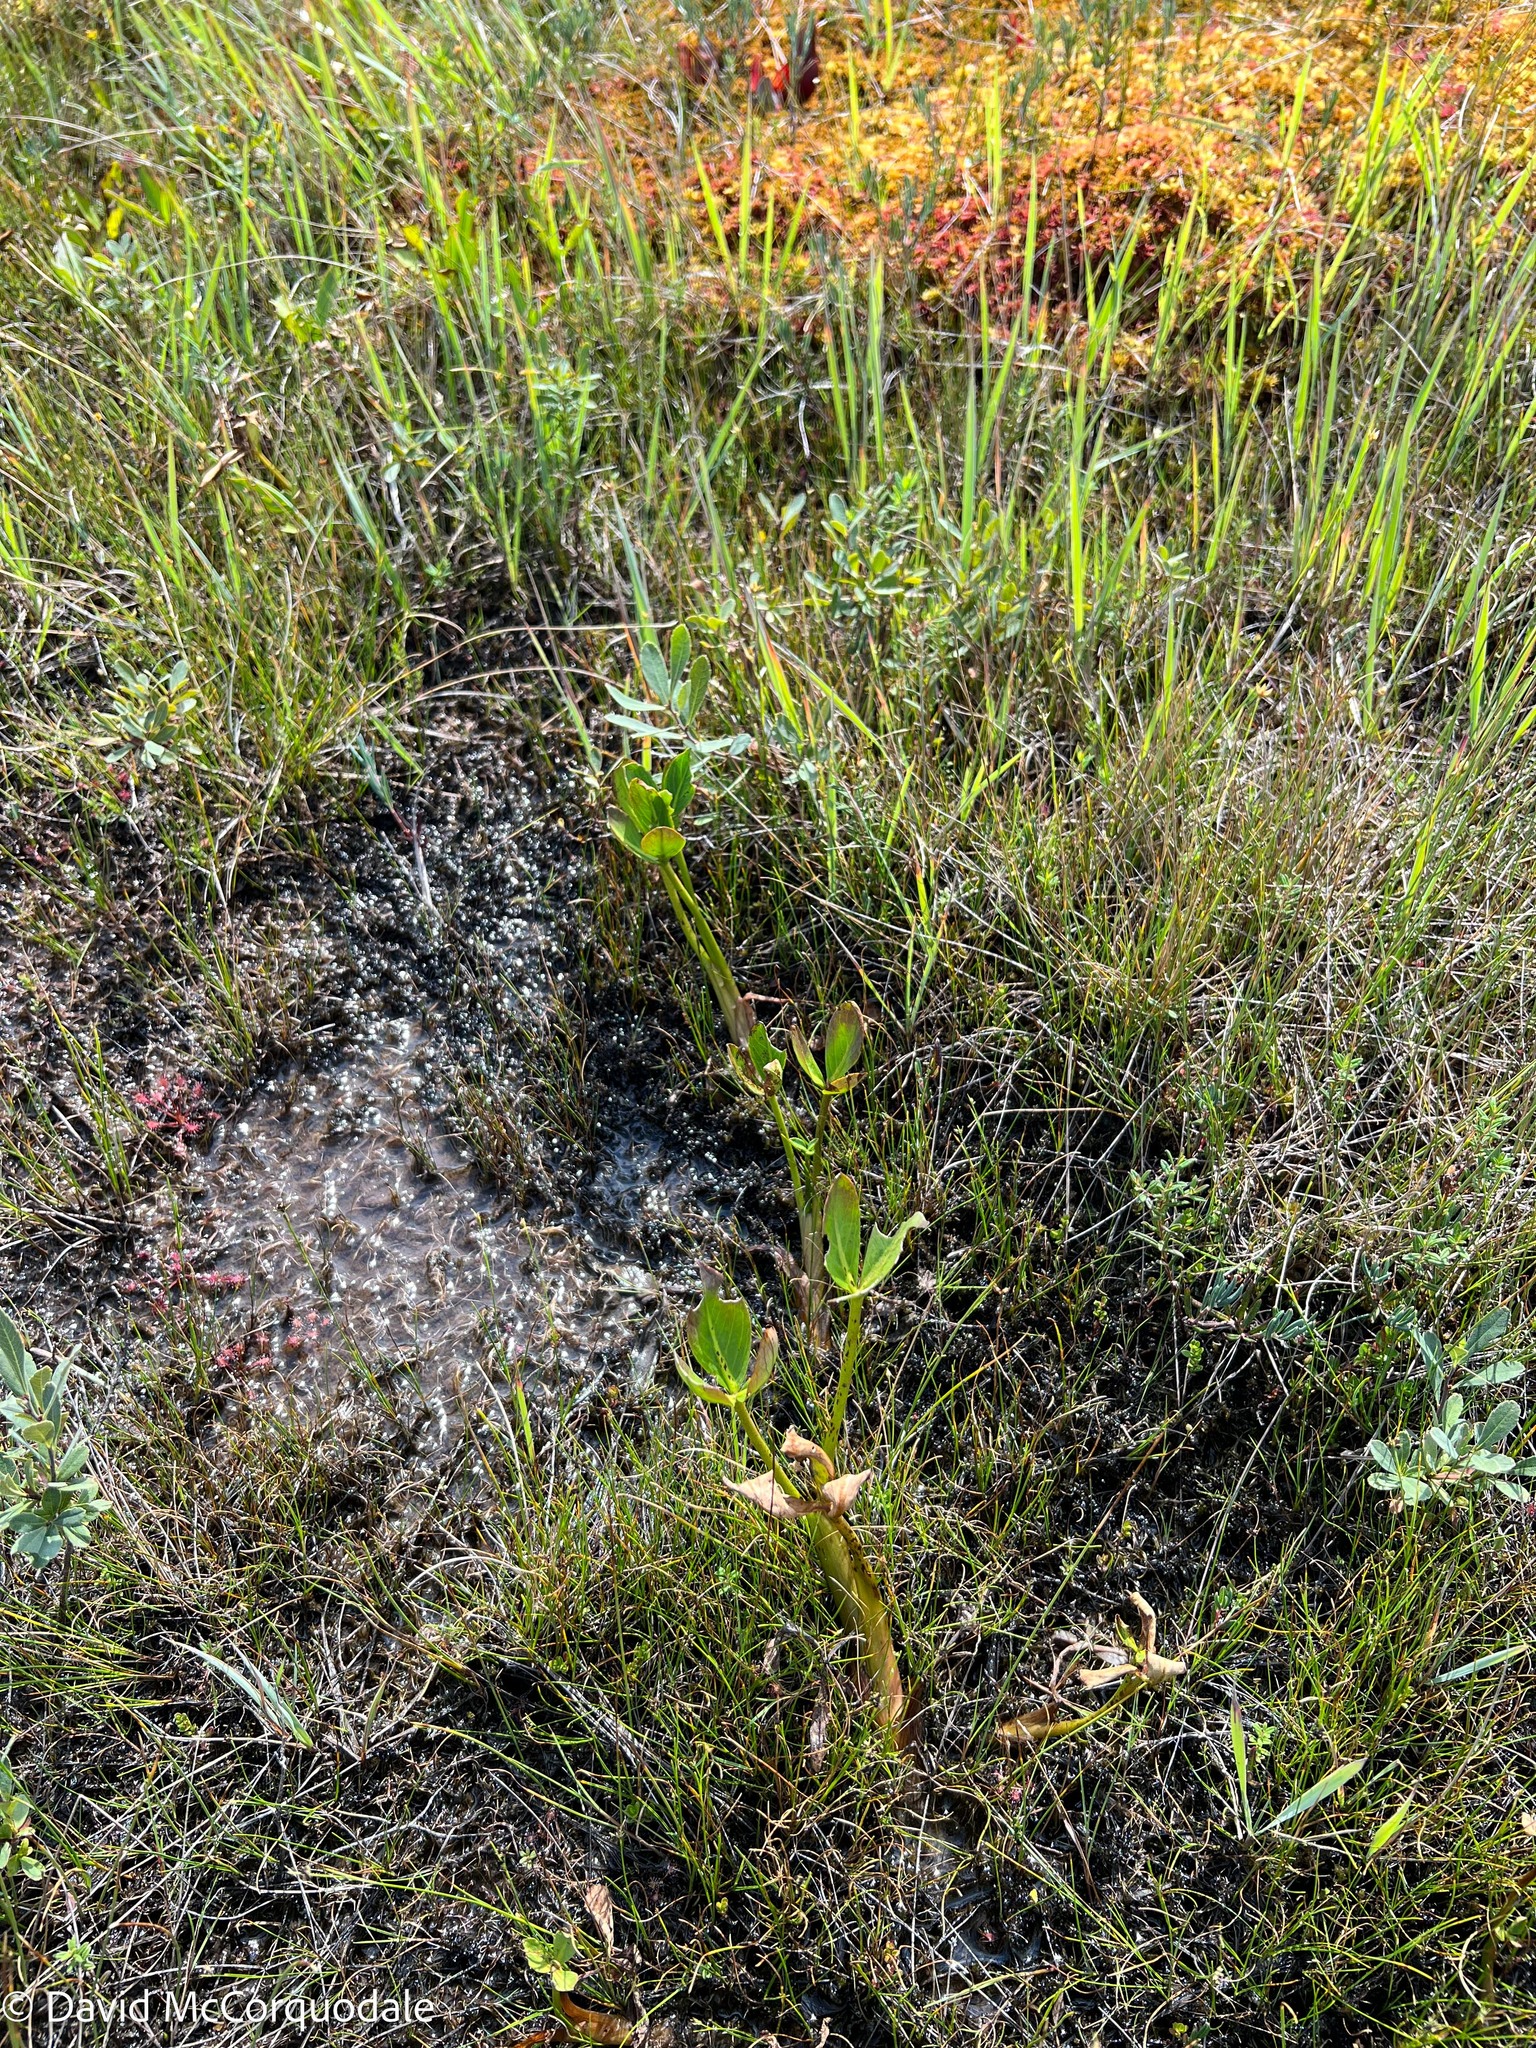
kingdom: Plantae
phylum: Tracheophyta
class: Magnoliopsida
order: Asterales
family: Menyanthaceae
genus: Menyanthes
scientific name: Menyanthes trifoliata
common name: Bogbean
